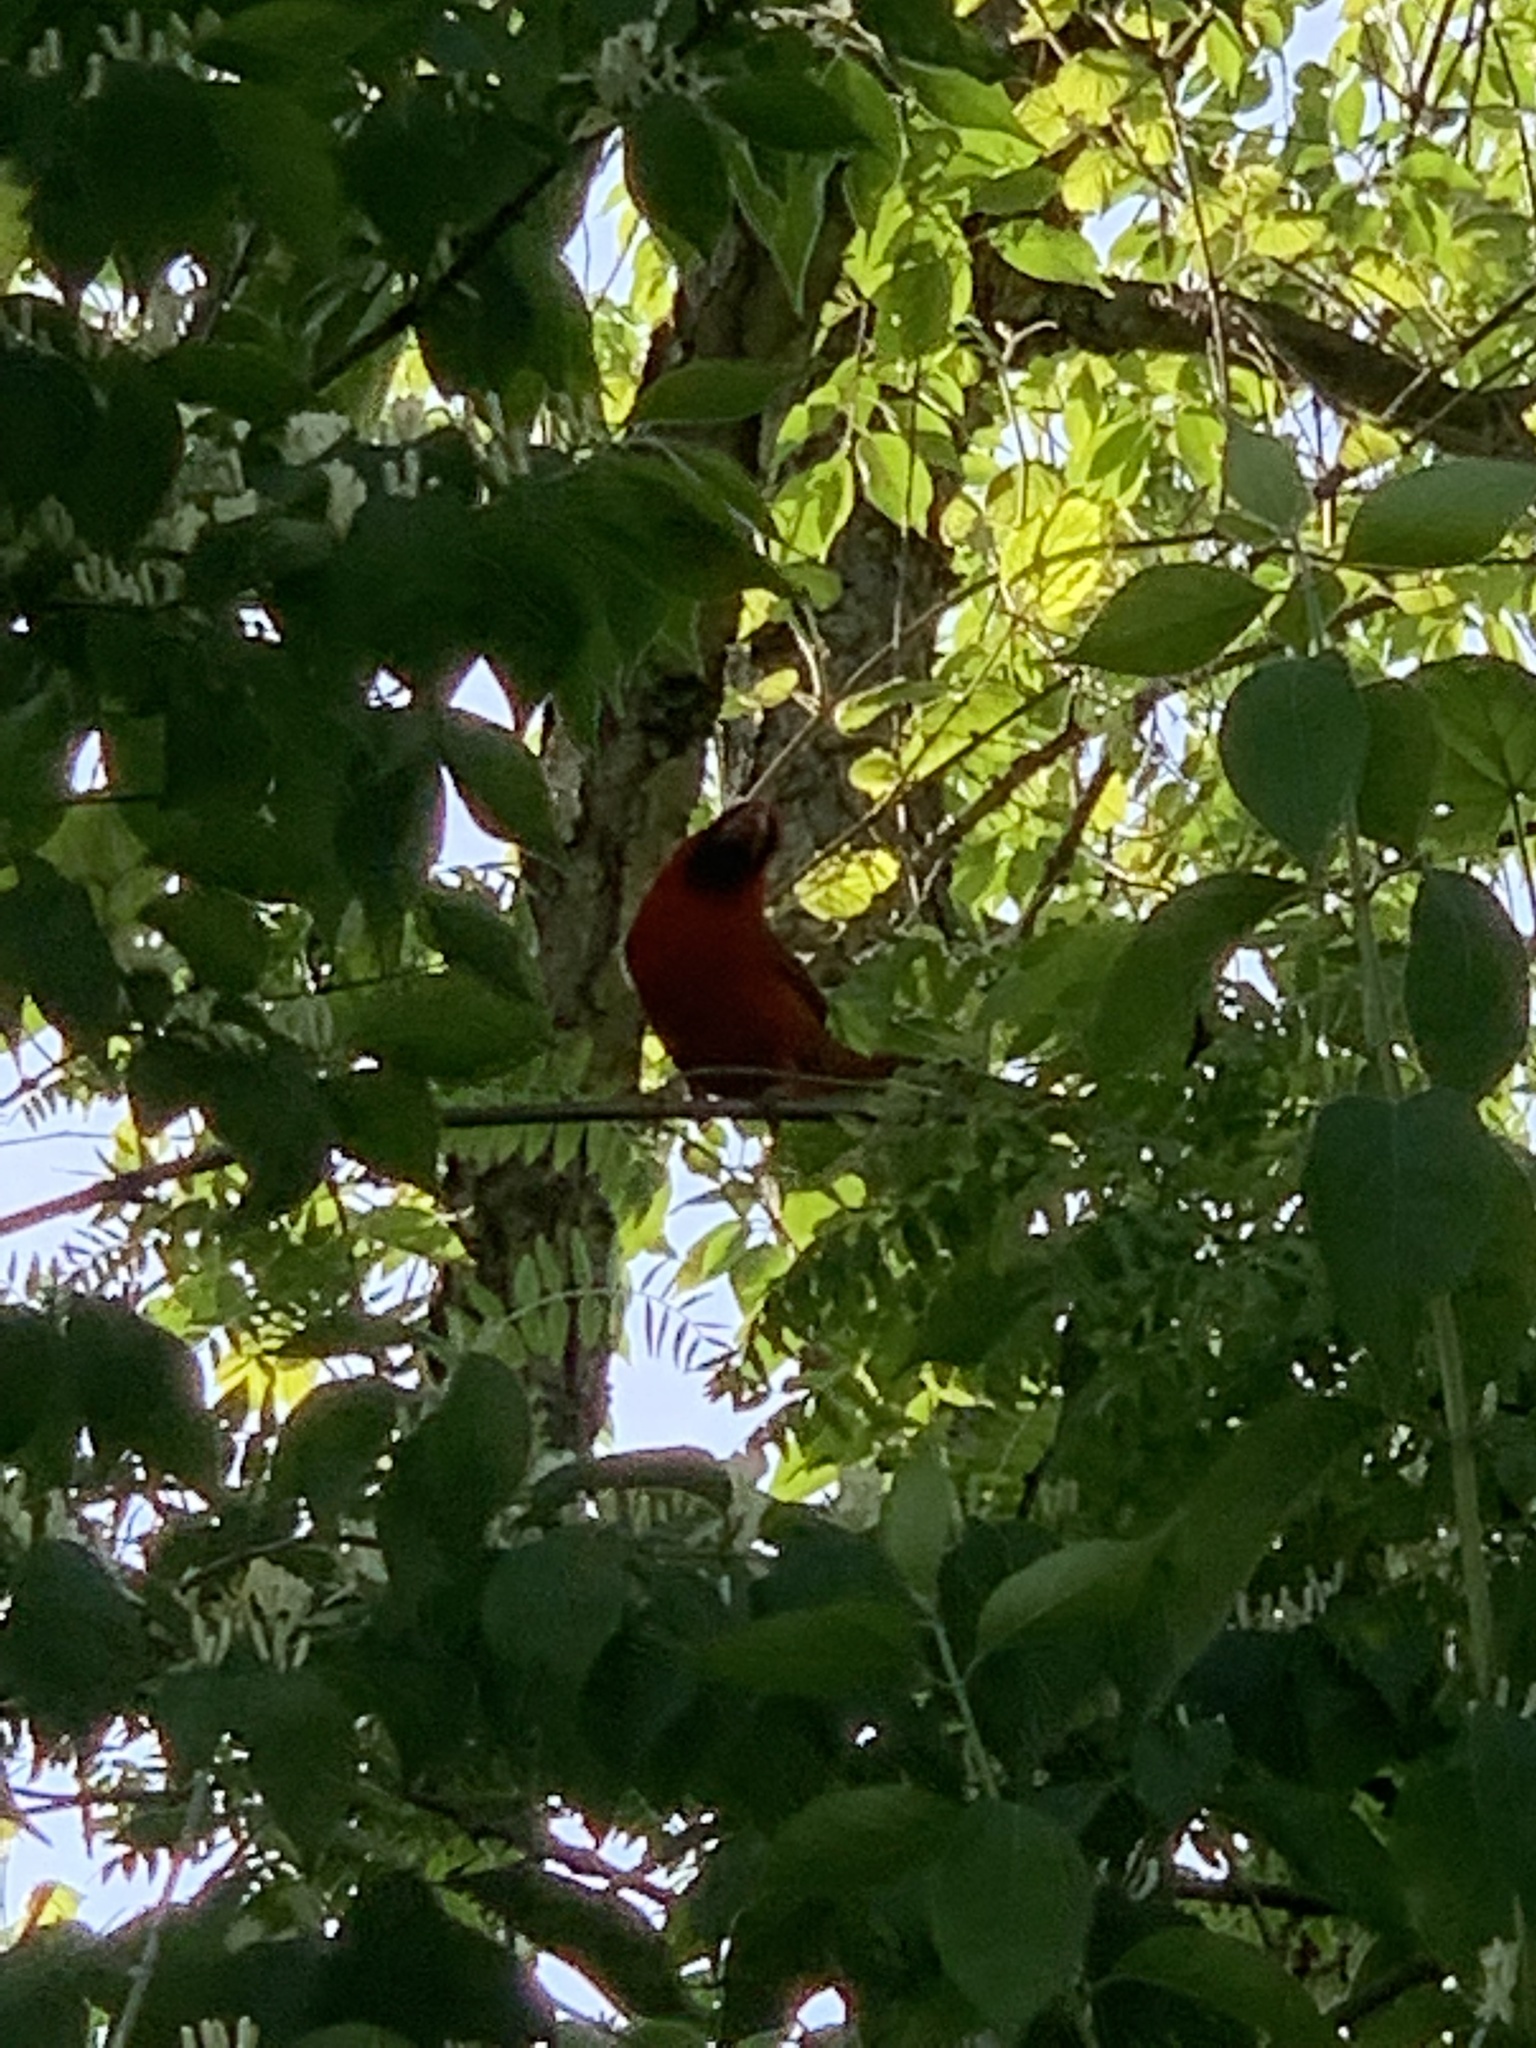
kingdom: Animalia
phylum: Chordata
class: Aves
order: Passeriformes
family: Cardinalidae
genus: Cardinalis
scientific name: Cardinalis cardinalis
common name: Northern cardinal
